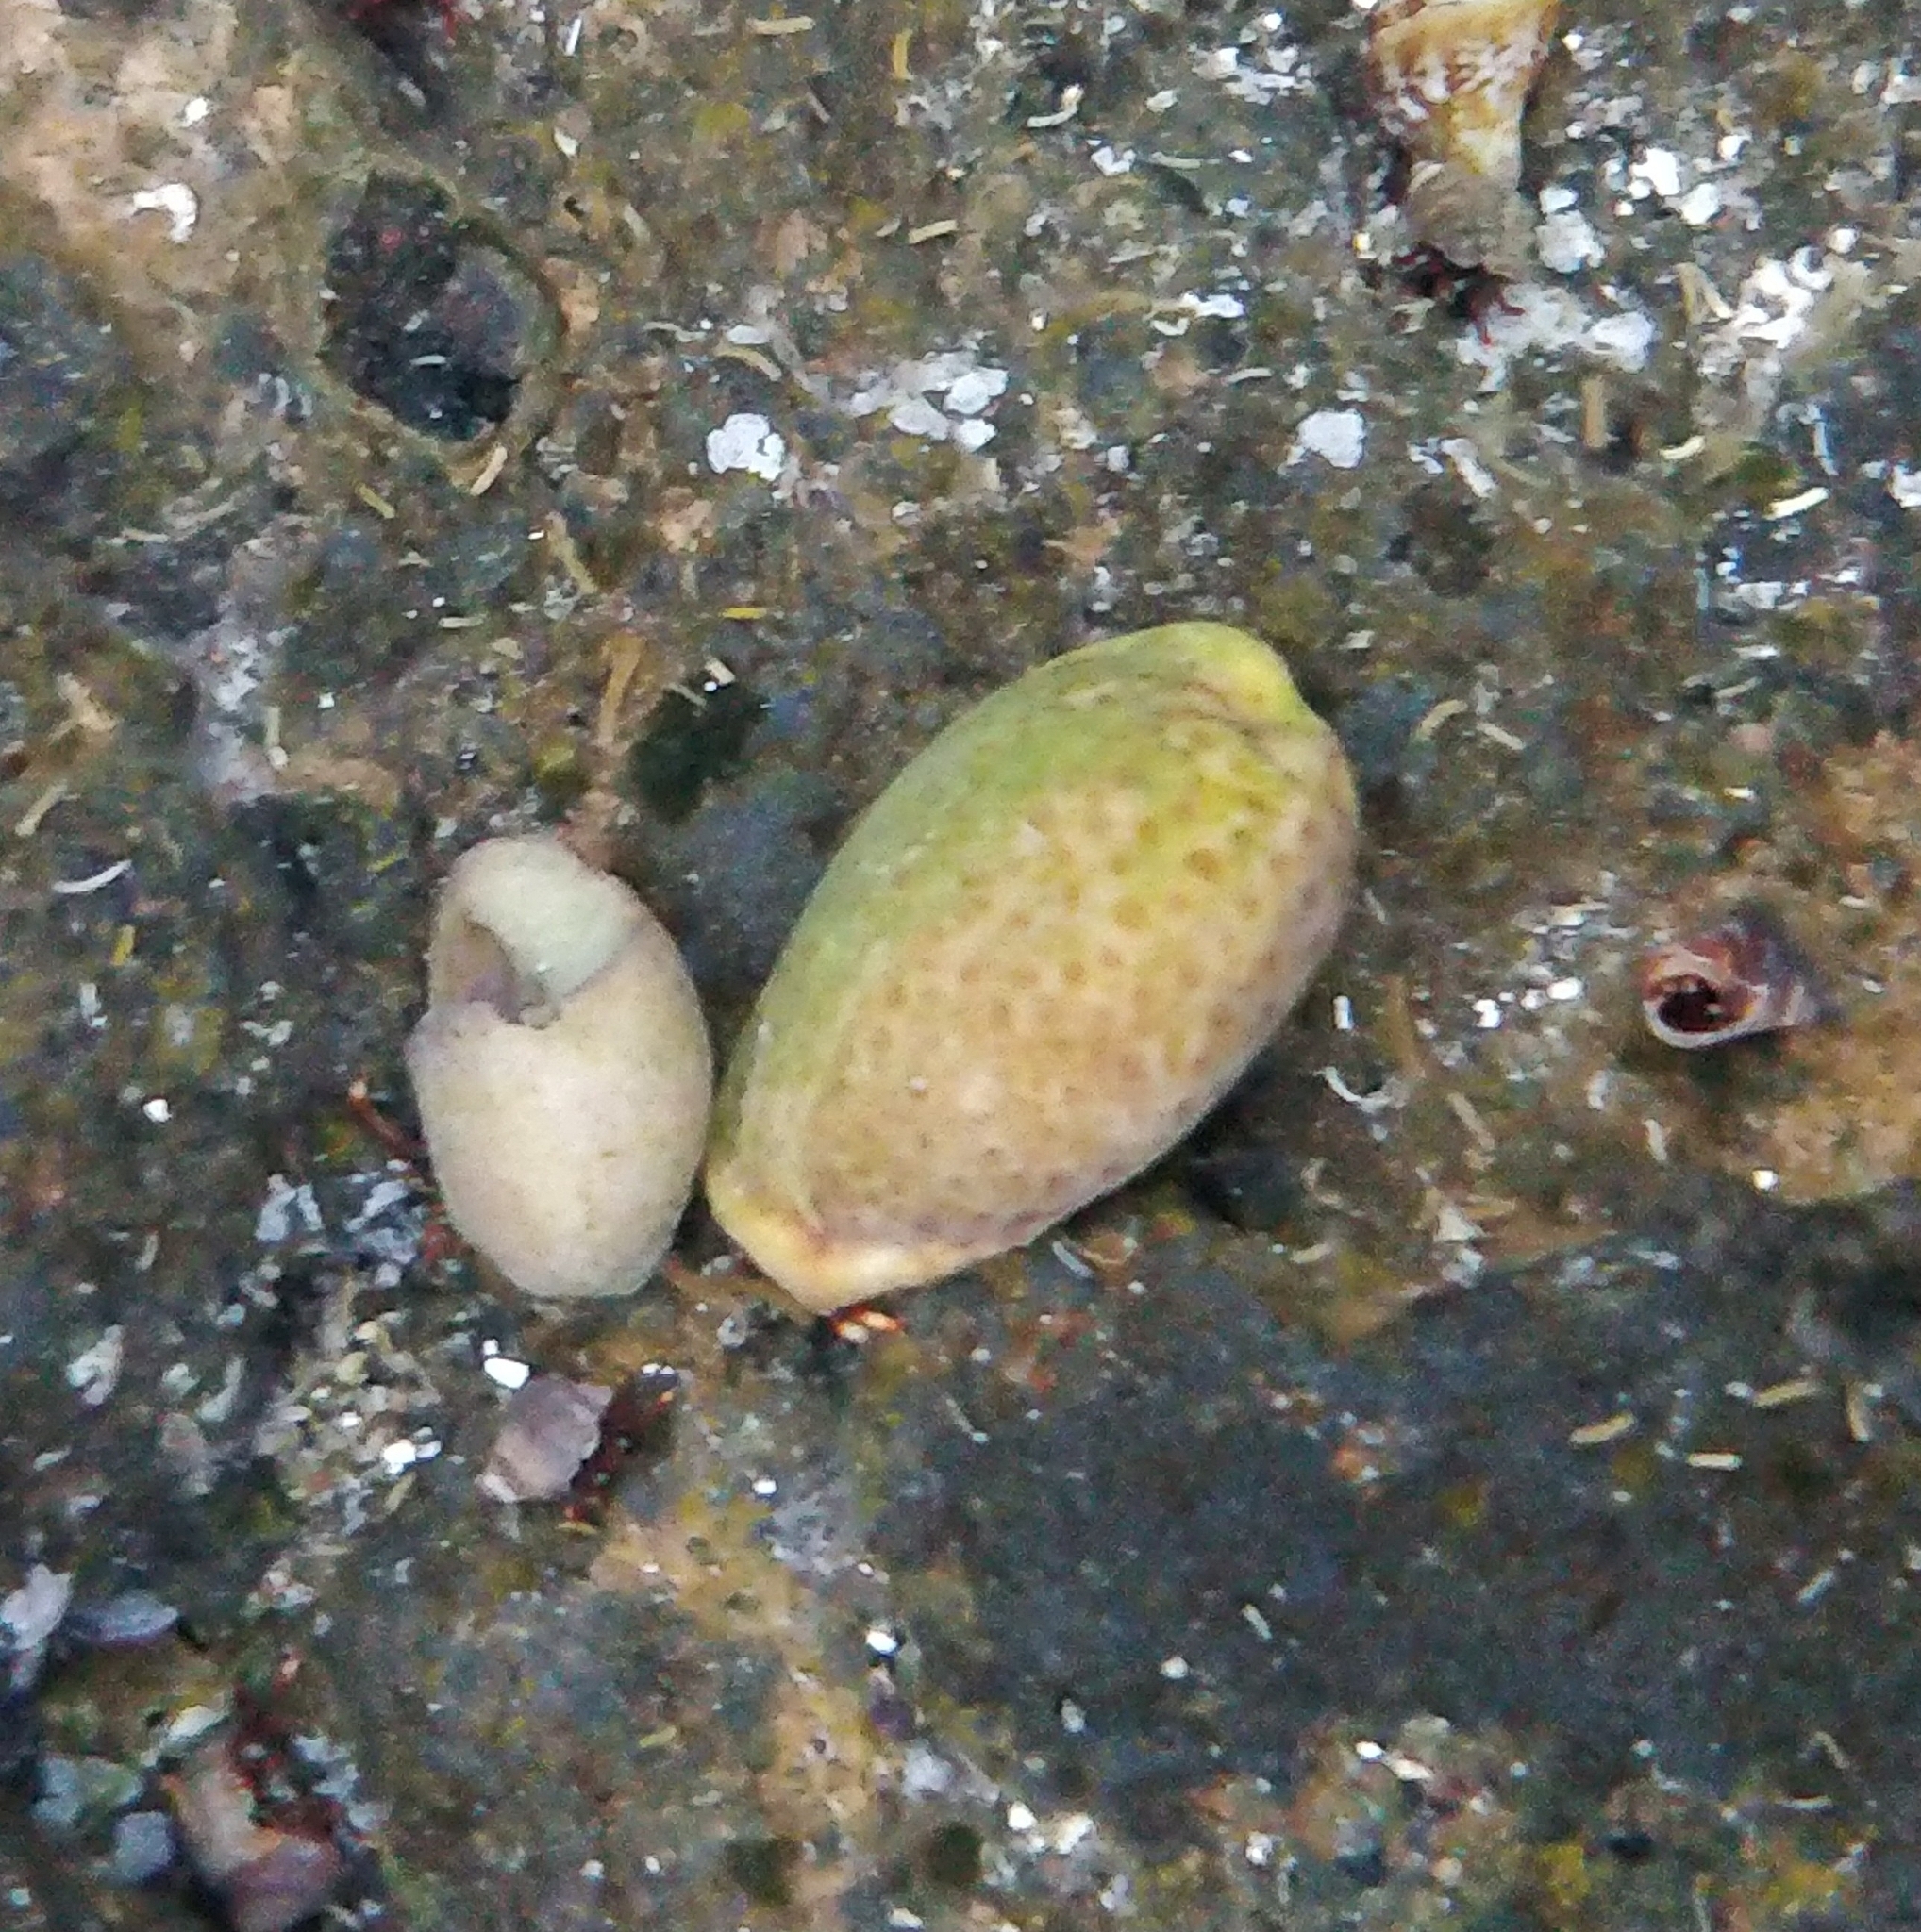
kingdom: Animalia
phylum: Mollusca
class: Gastropoda
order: Littorinimorpha
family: Cypraeidae
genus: Naria
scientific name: Naria spurca
